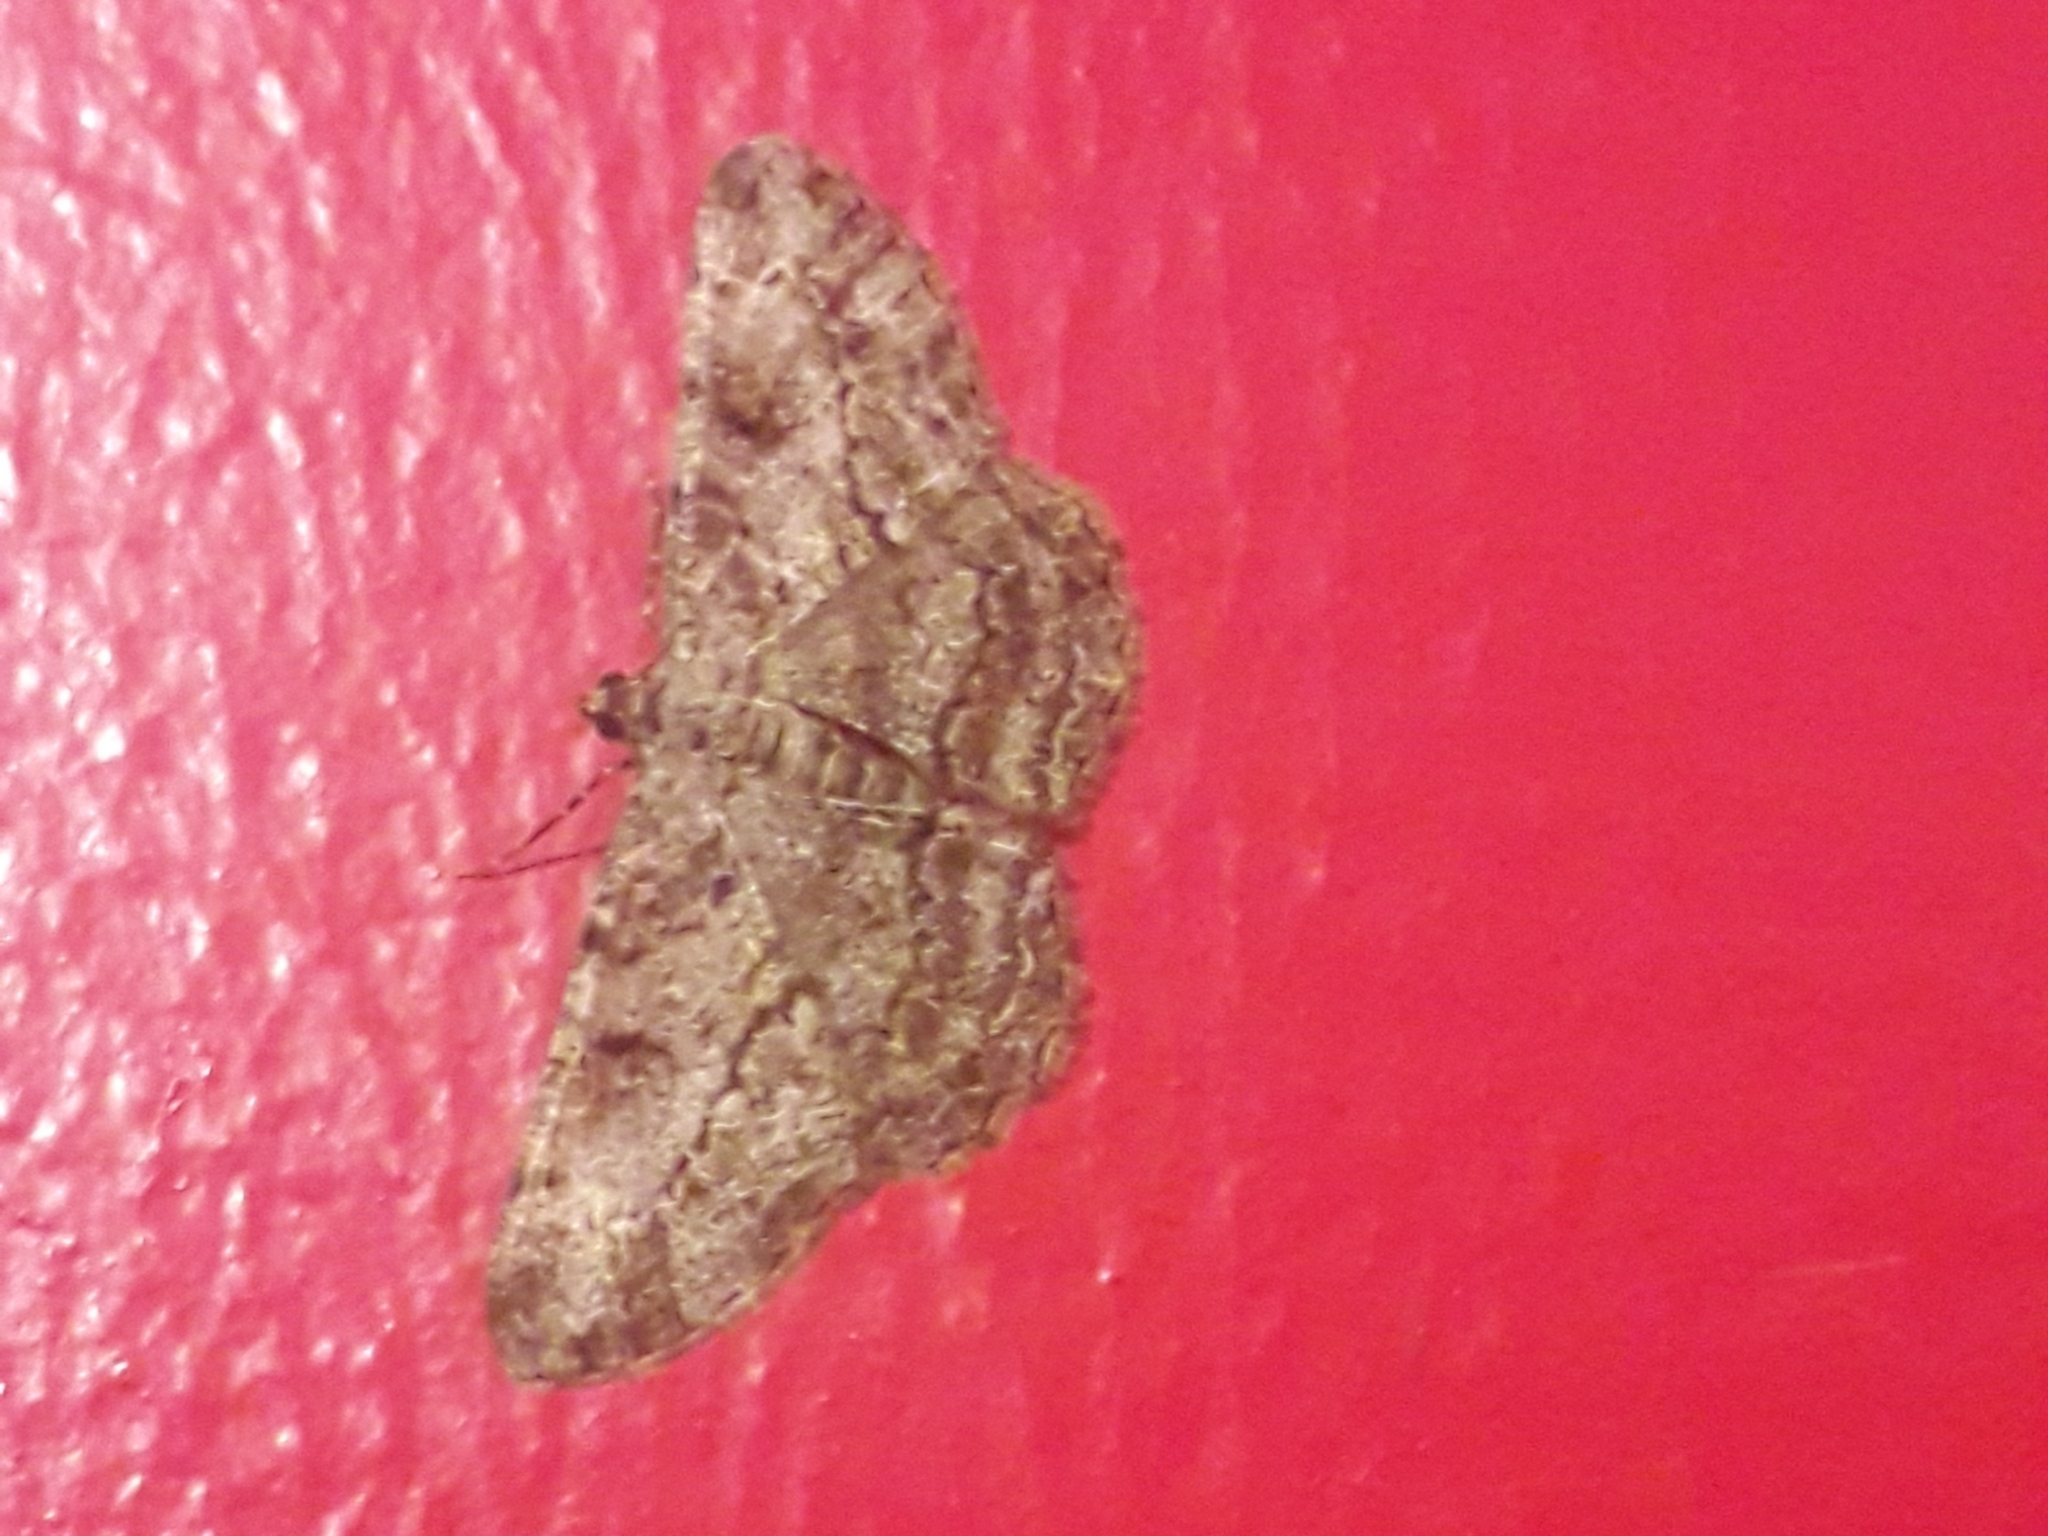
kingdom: Animalia
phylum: Arthropoda
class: Insecta
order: Lepidoptera
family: Geometridae
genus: Peribatodes
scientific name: Peribatodes rhomboidaria
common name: Willow beauty
